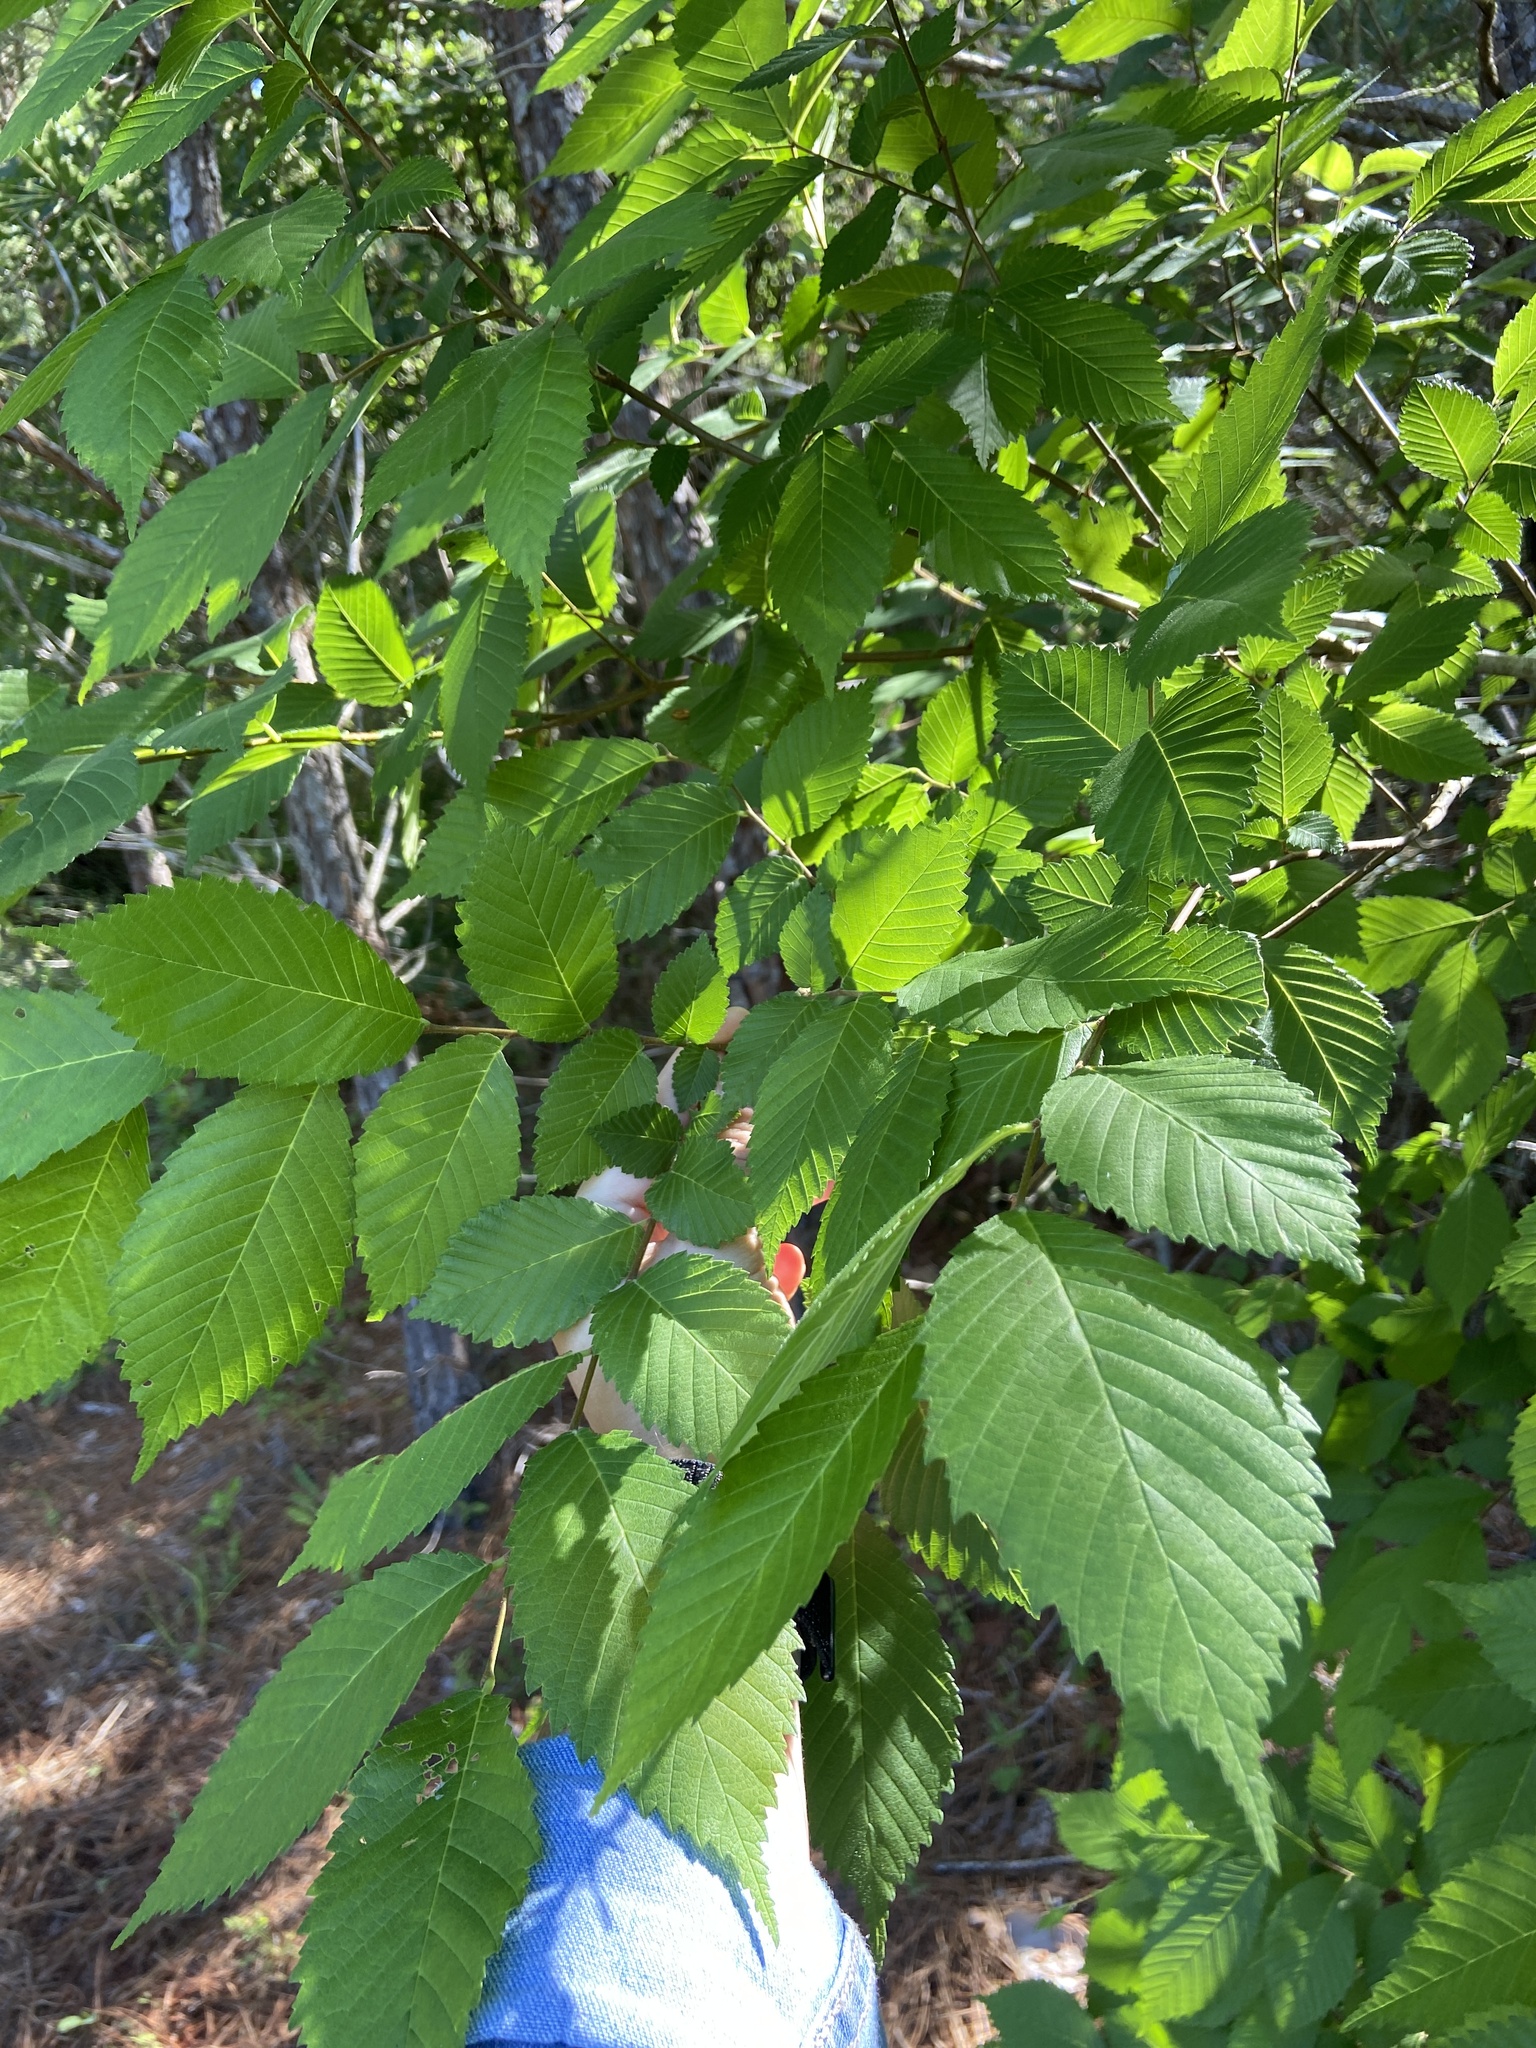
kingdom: Plantae
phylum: Tracheophyta
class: Magnoliopsida
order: Rosales
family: Ulmaceae
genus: Ulmus
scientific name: Ulmus americana
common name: American elm
